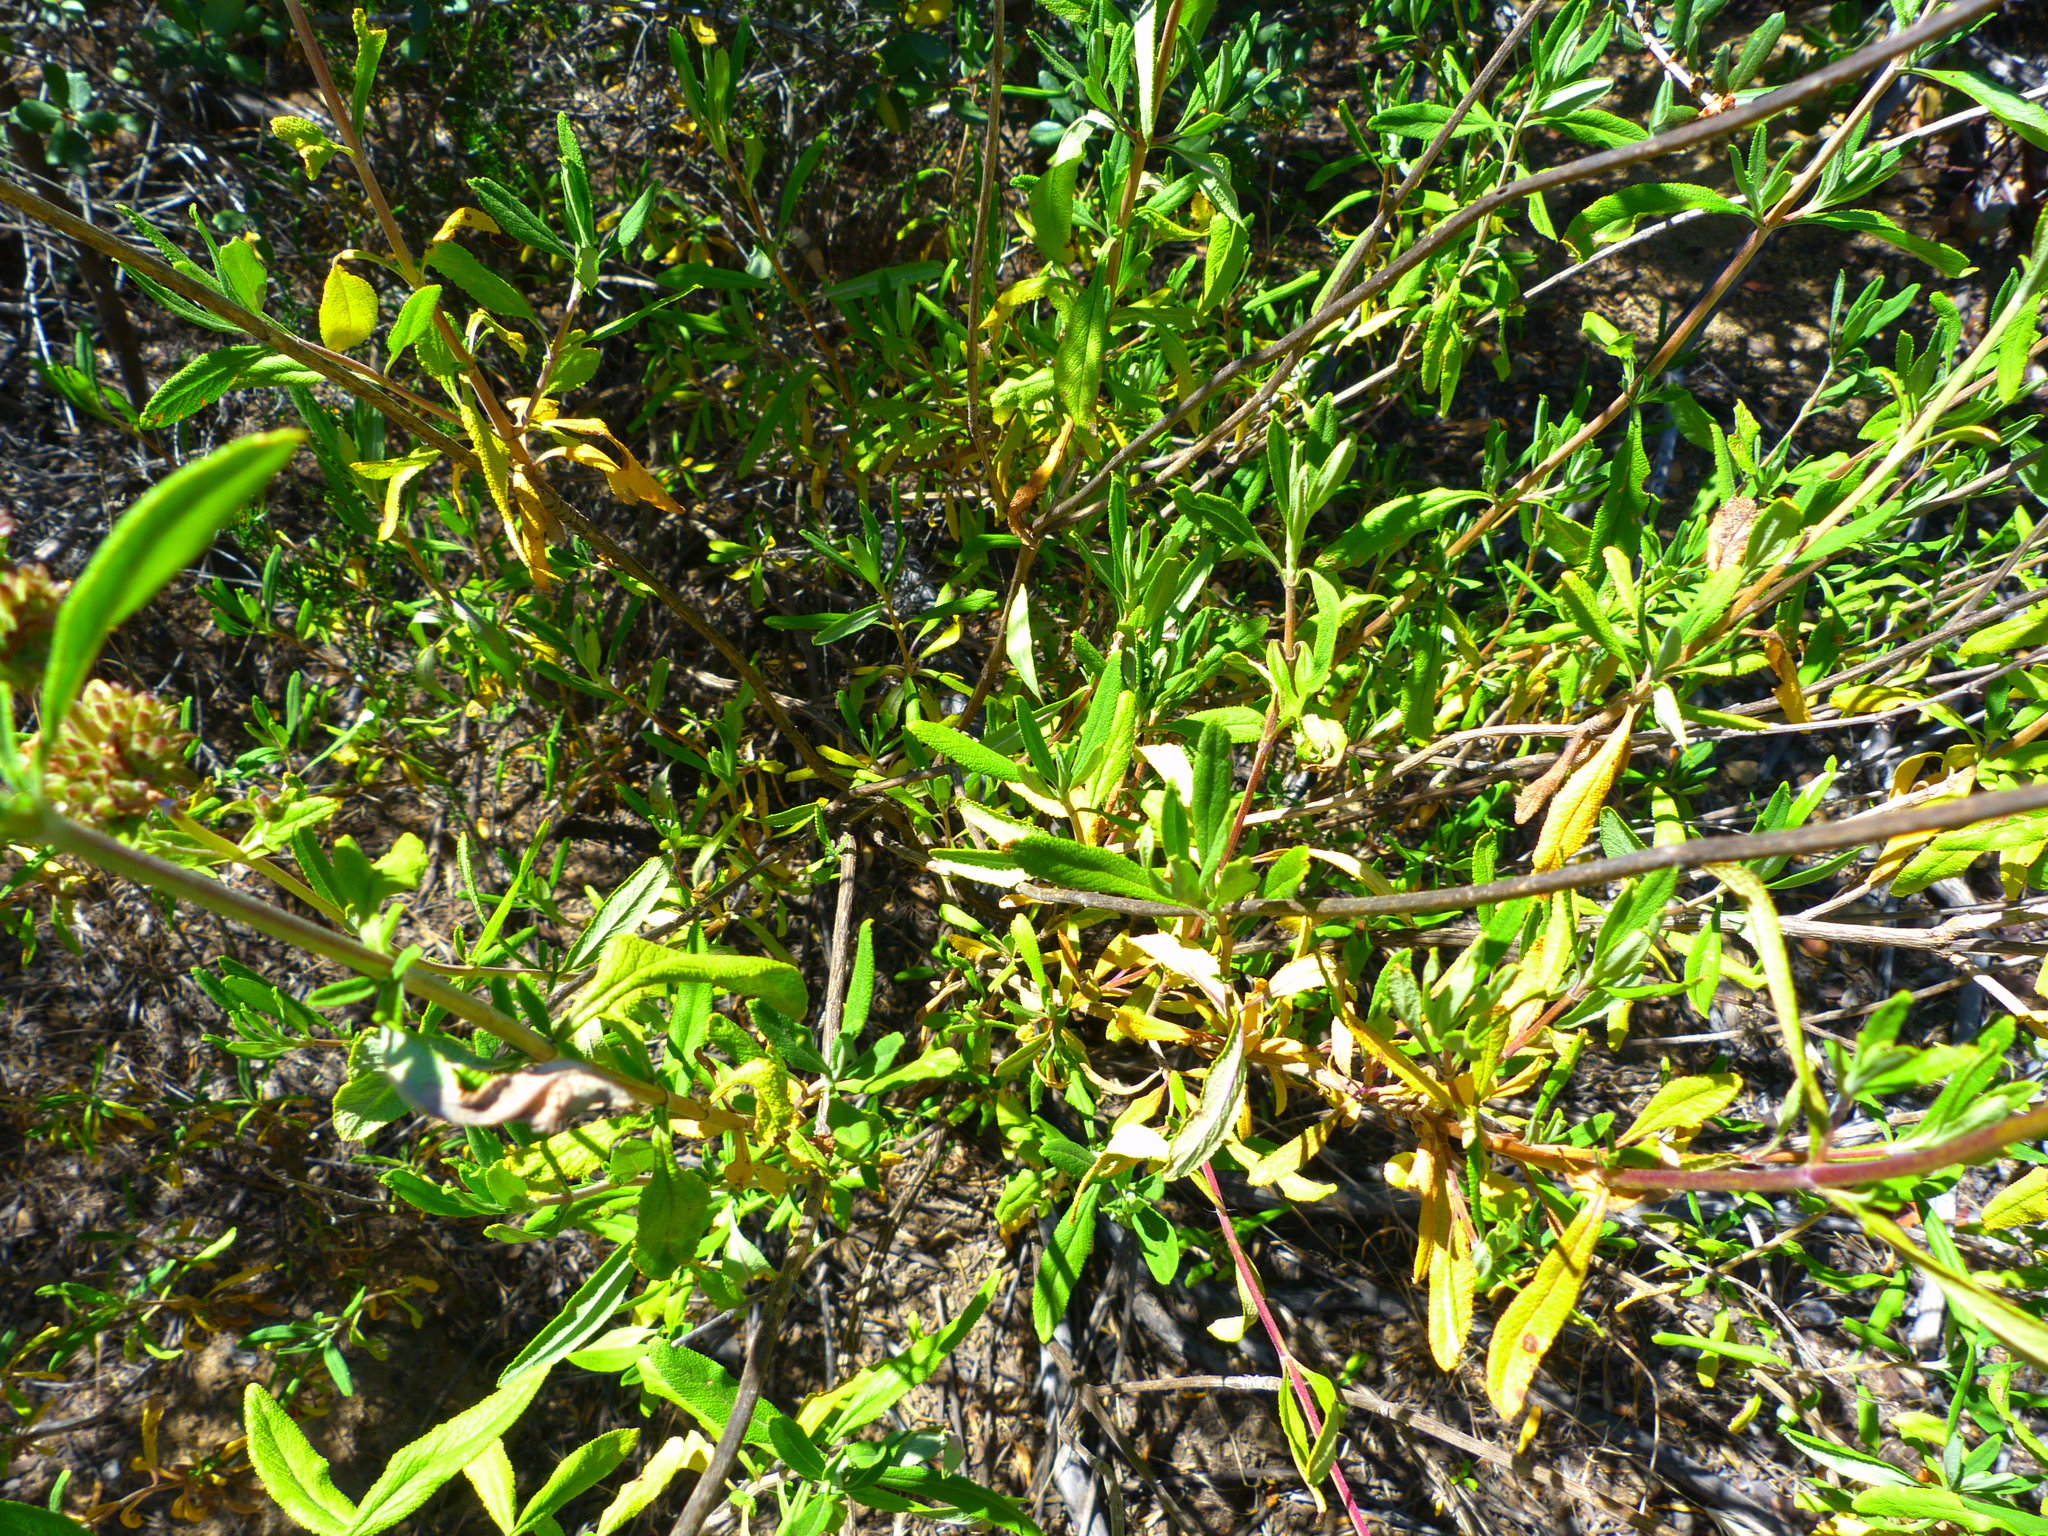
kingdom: Plantae
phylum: Tracheophyta
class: Magnoliopsida
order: Lamiales
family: Lamiaceae
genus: Salvia
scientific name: Salvia mellifera
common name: Black sage
